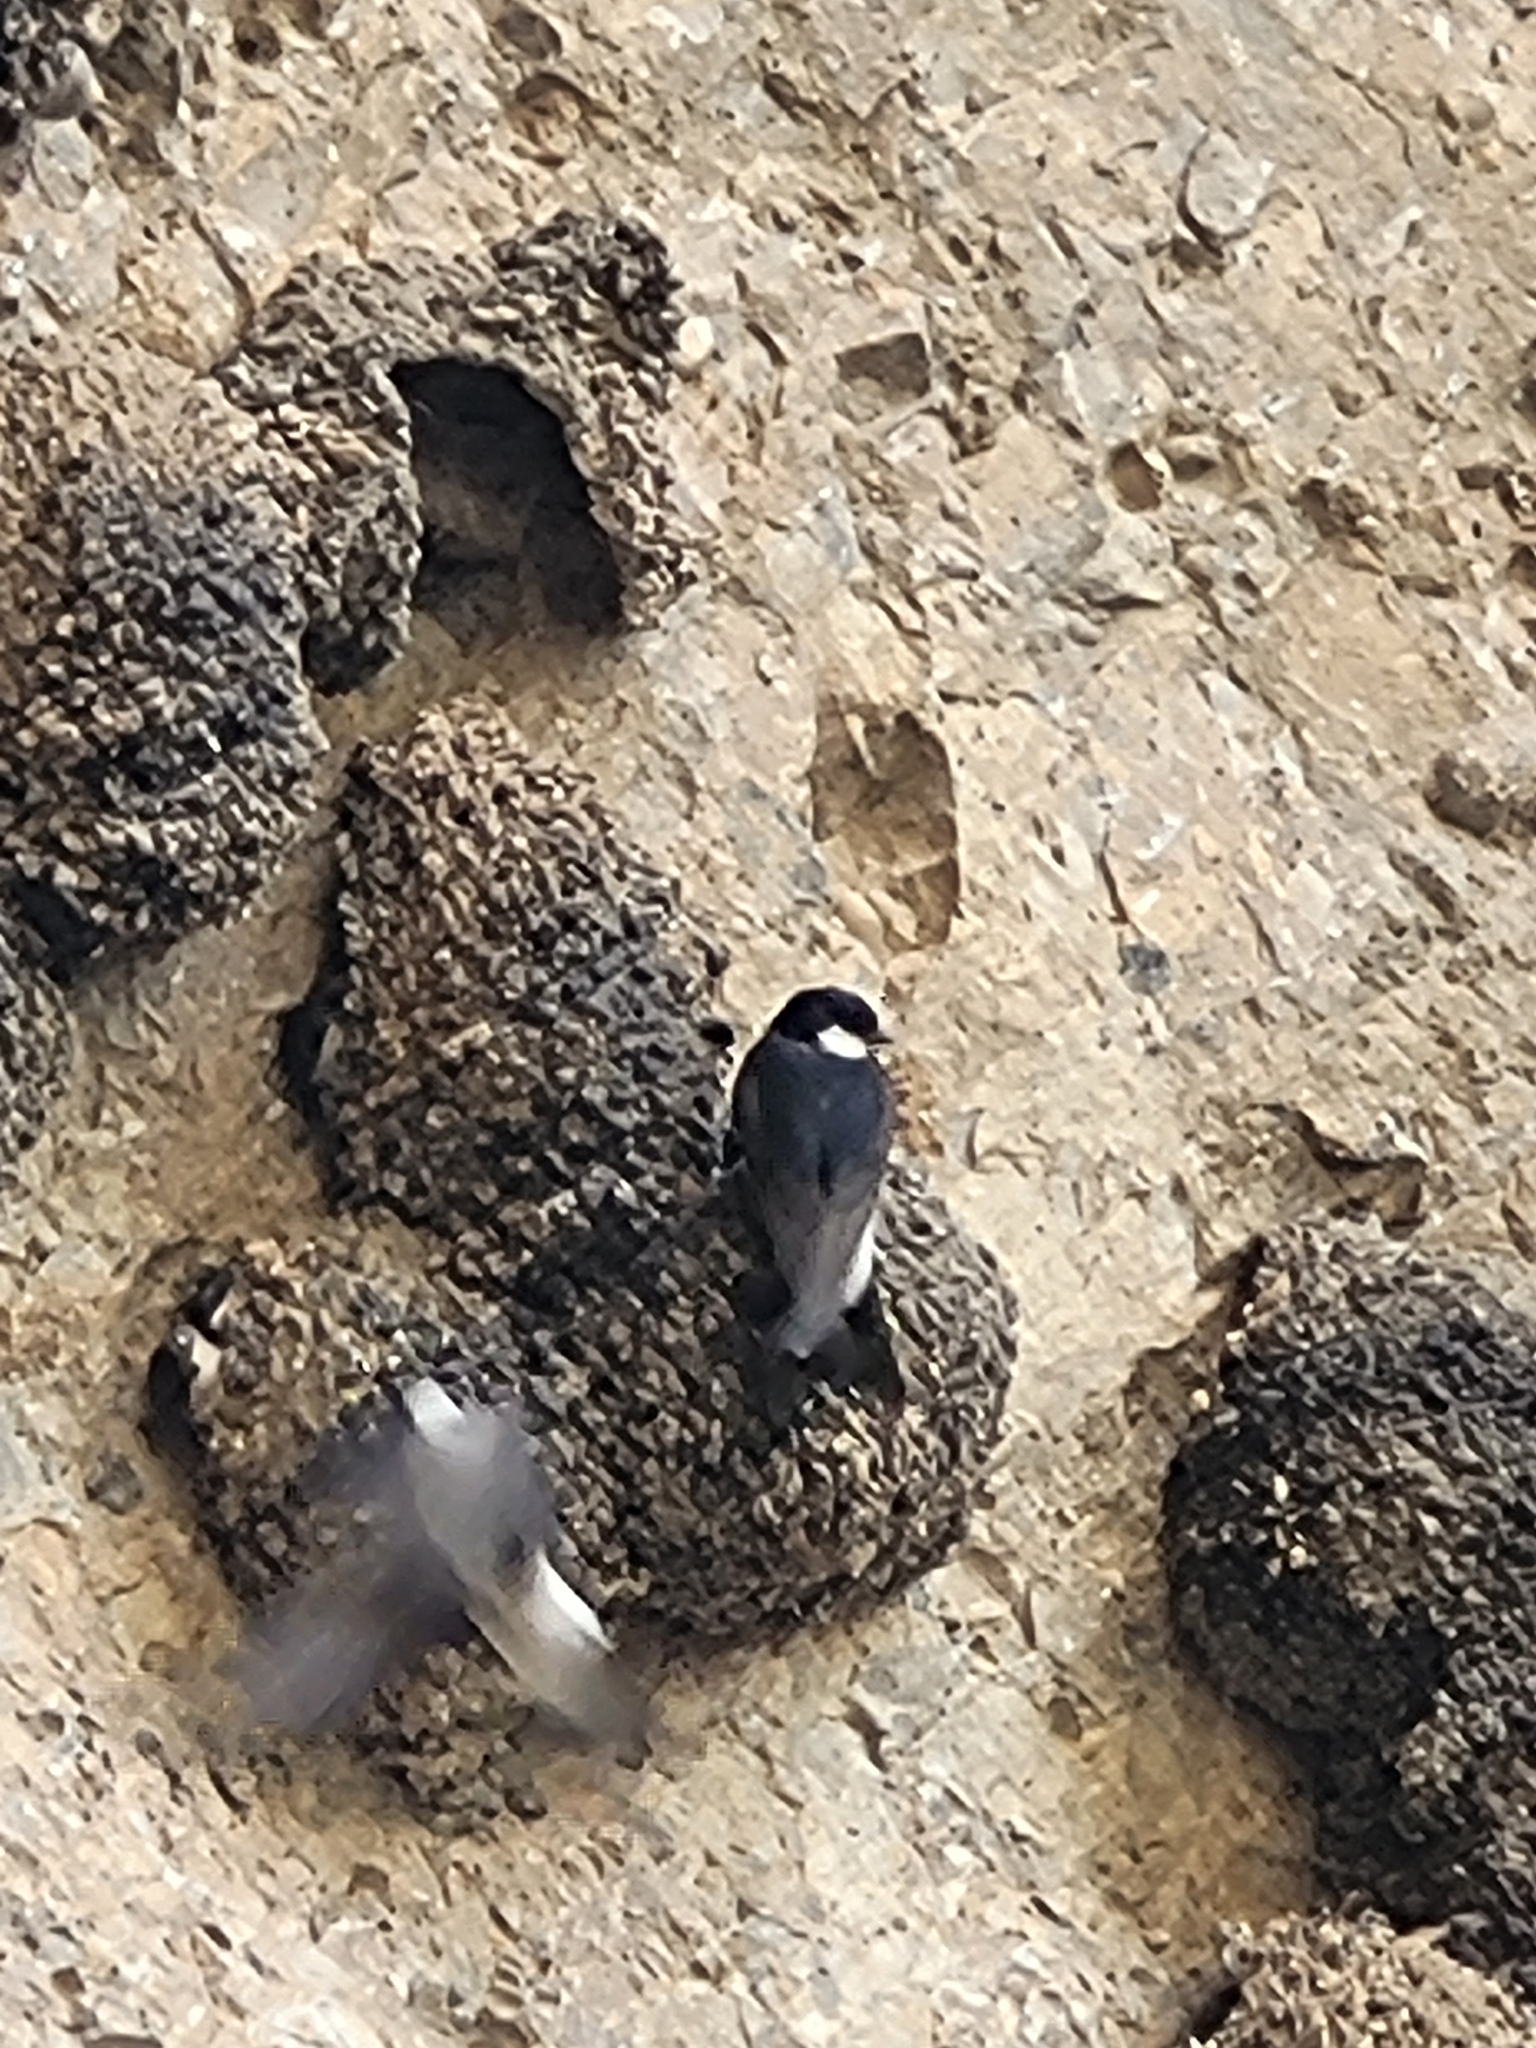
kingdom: Animalia
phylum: Chordata
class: Aves
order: Passeriformes
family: Hirundinidae
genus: Delichon
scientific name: Delichon urbicum
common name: Common house martin
